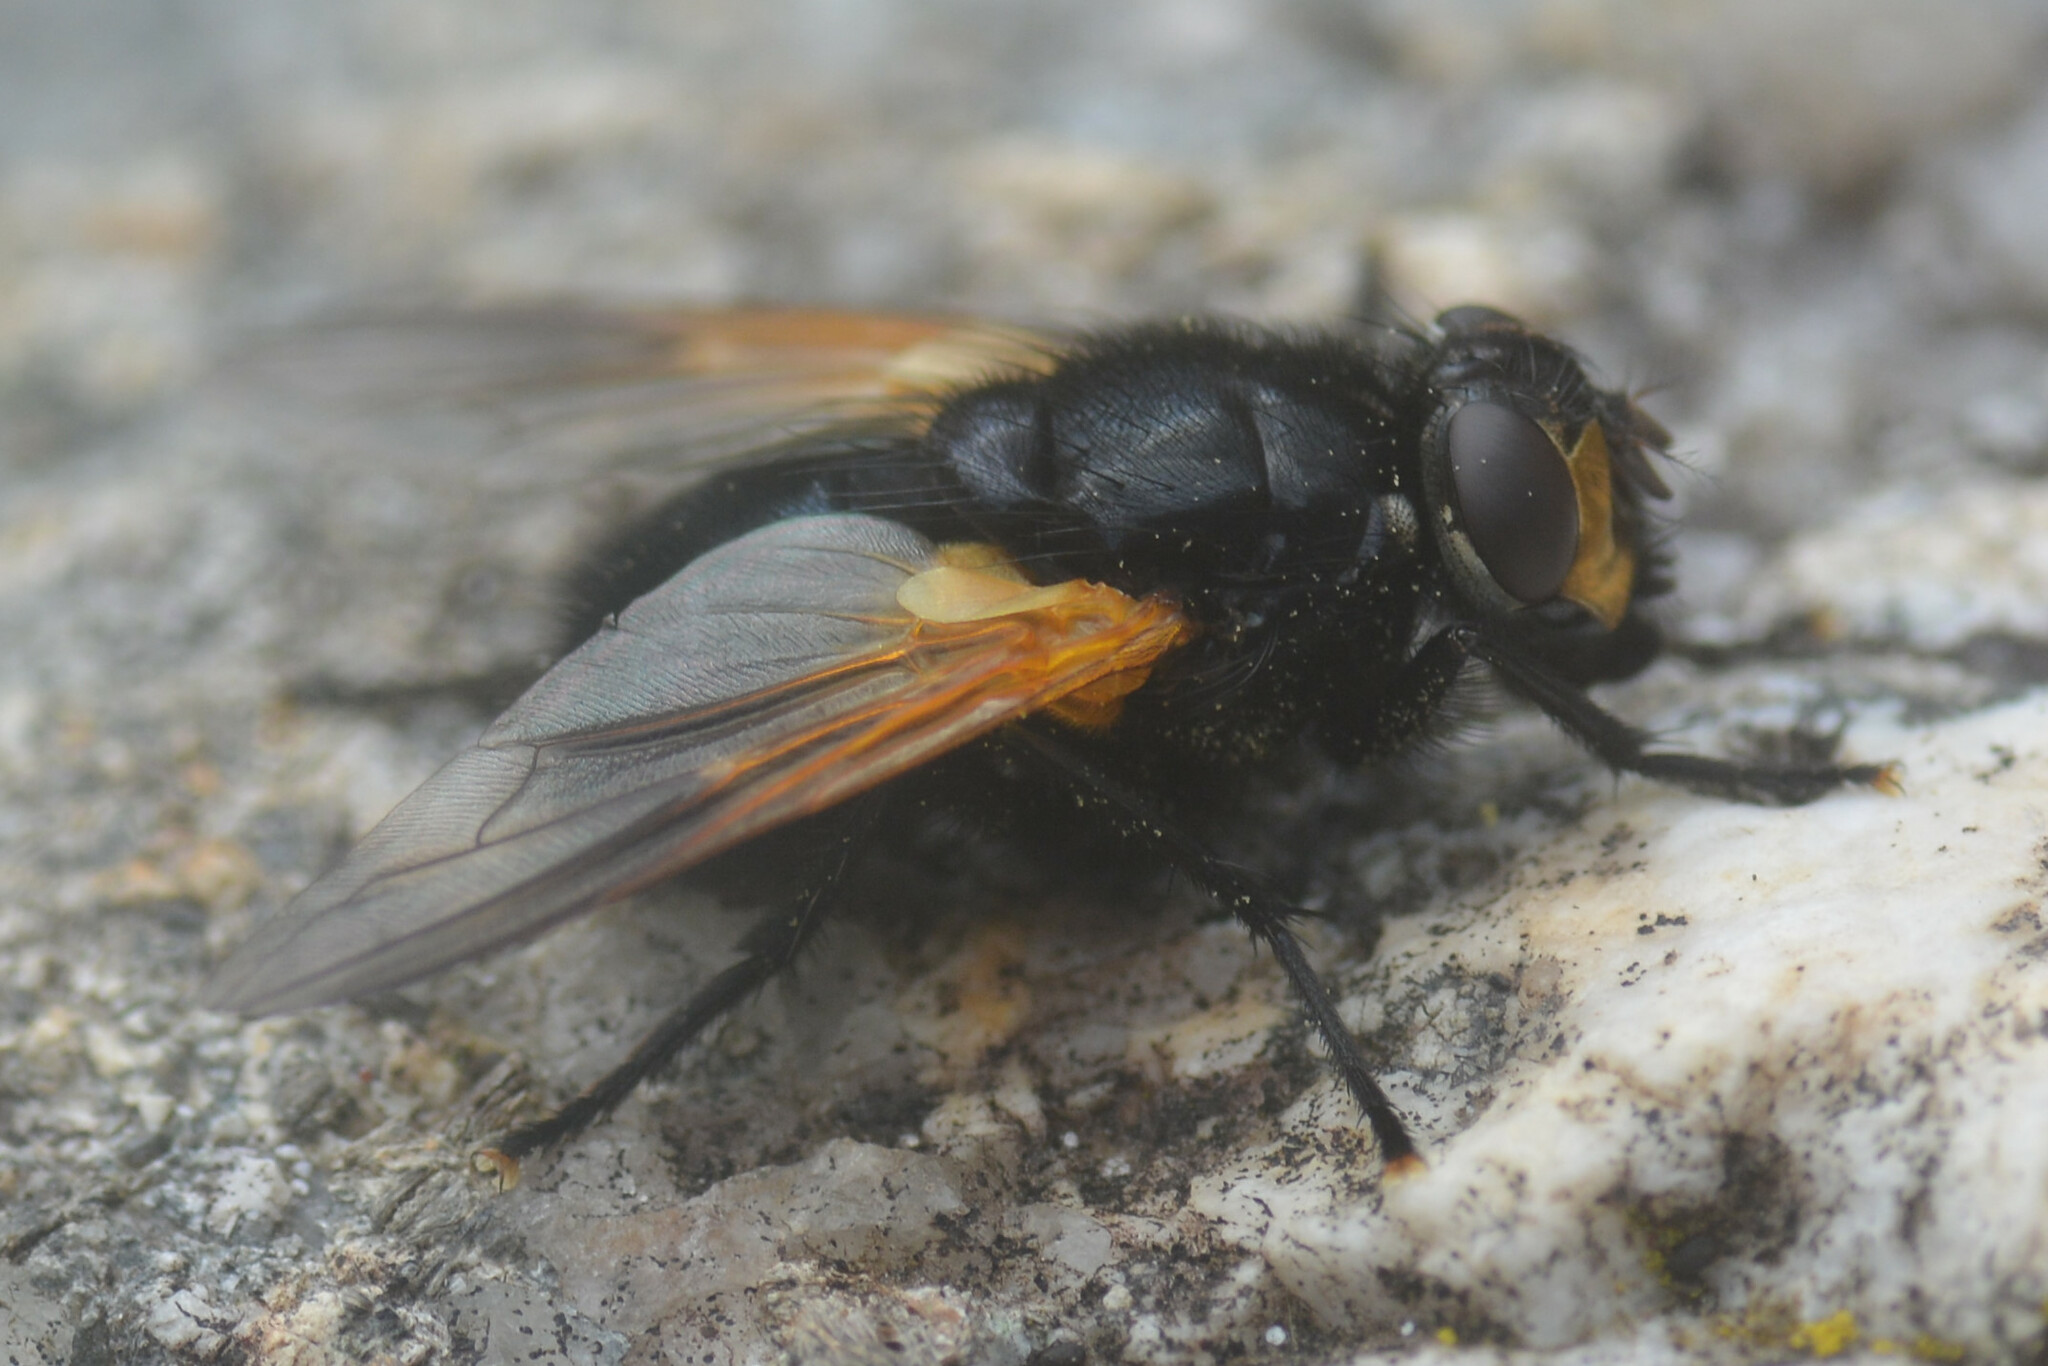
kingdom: Animalia
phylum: Arthropoda
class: Insecta
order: Diptera
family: Muscidae
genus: Mesembrina
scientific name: Mesembrina meridiana
